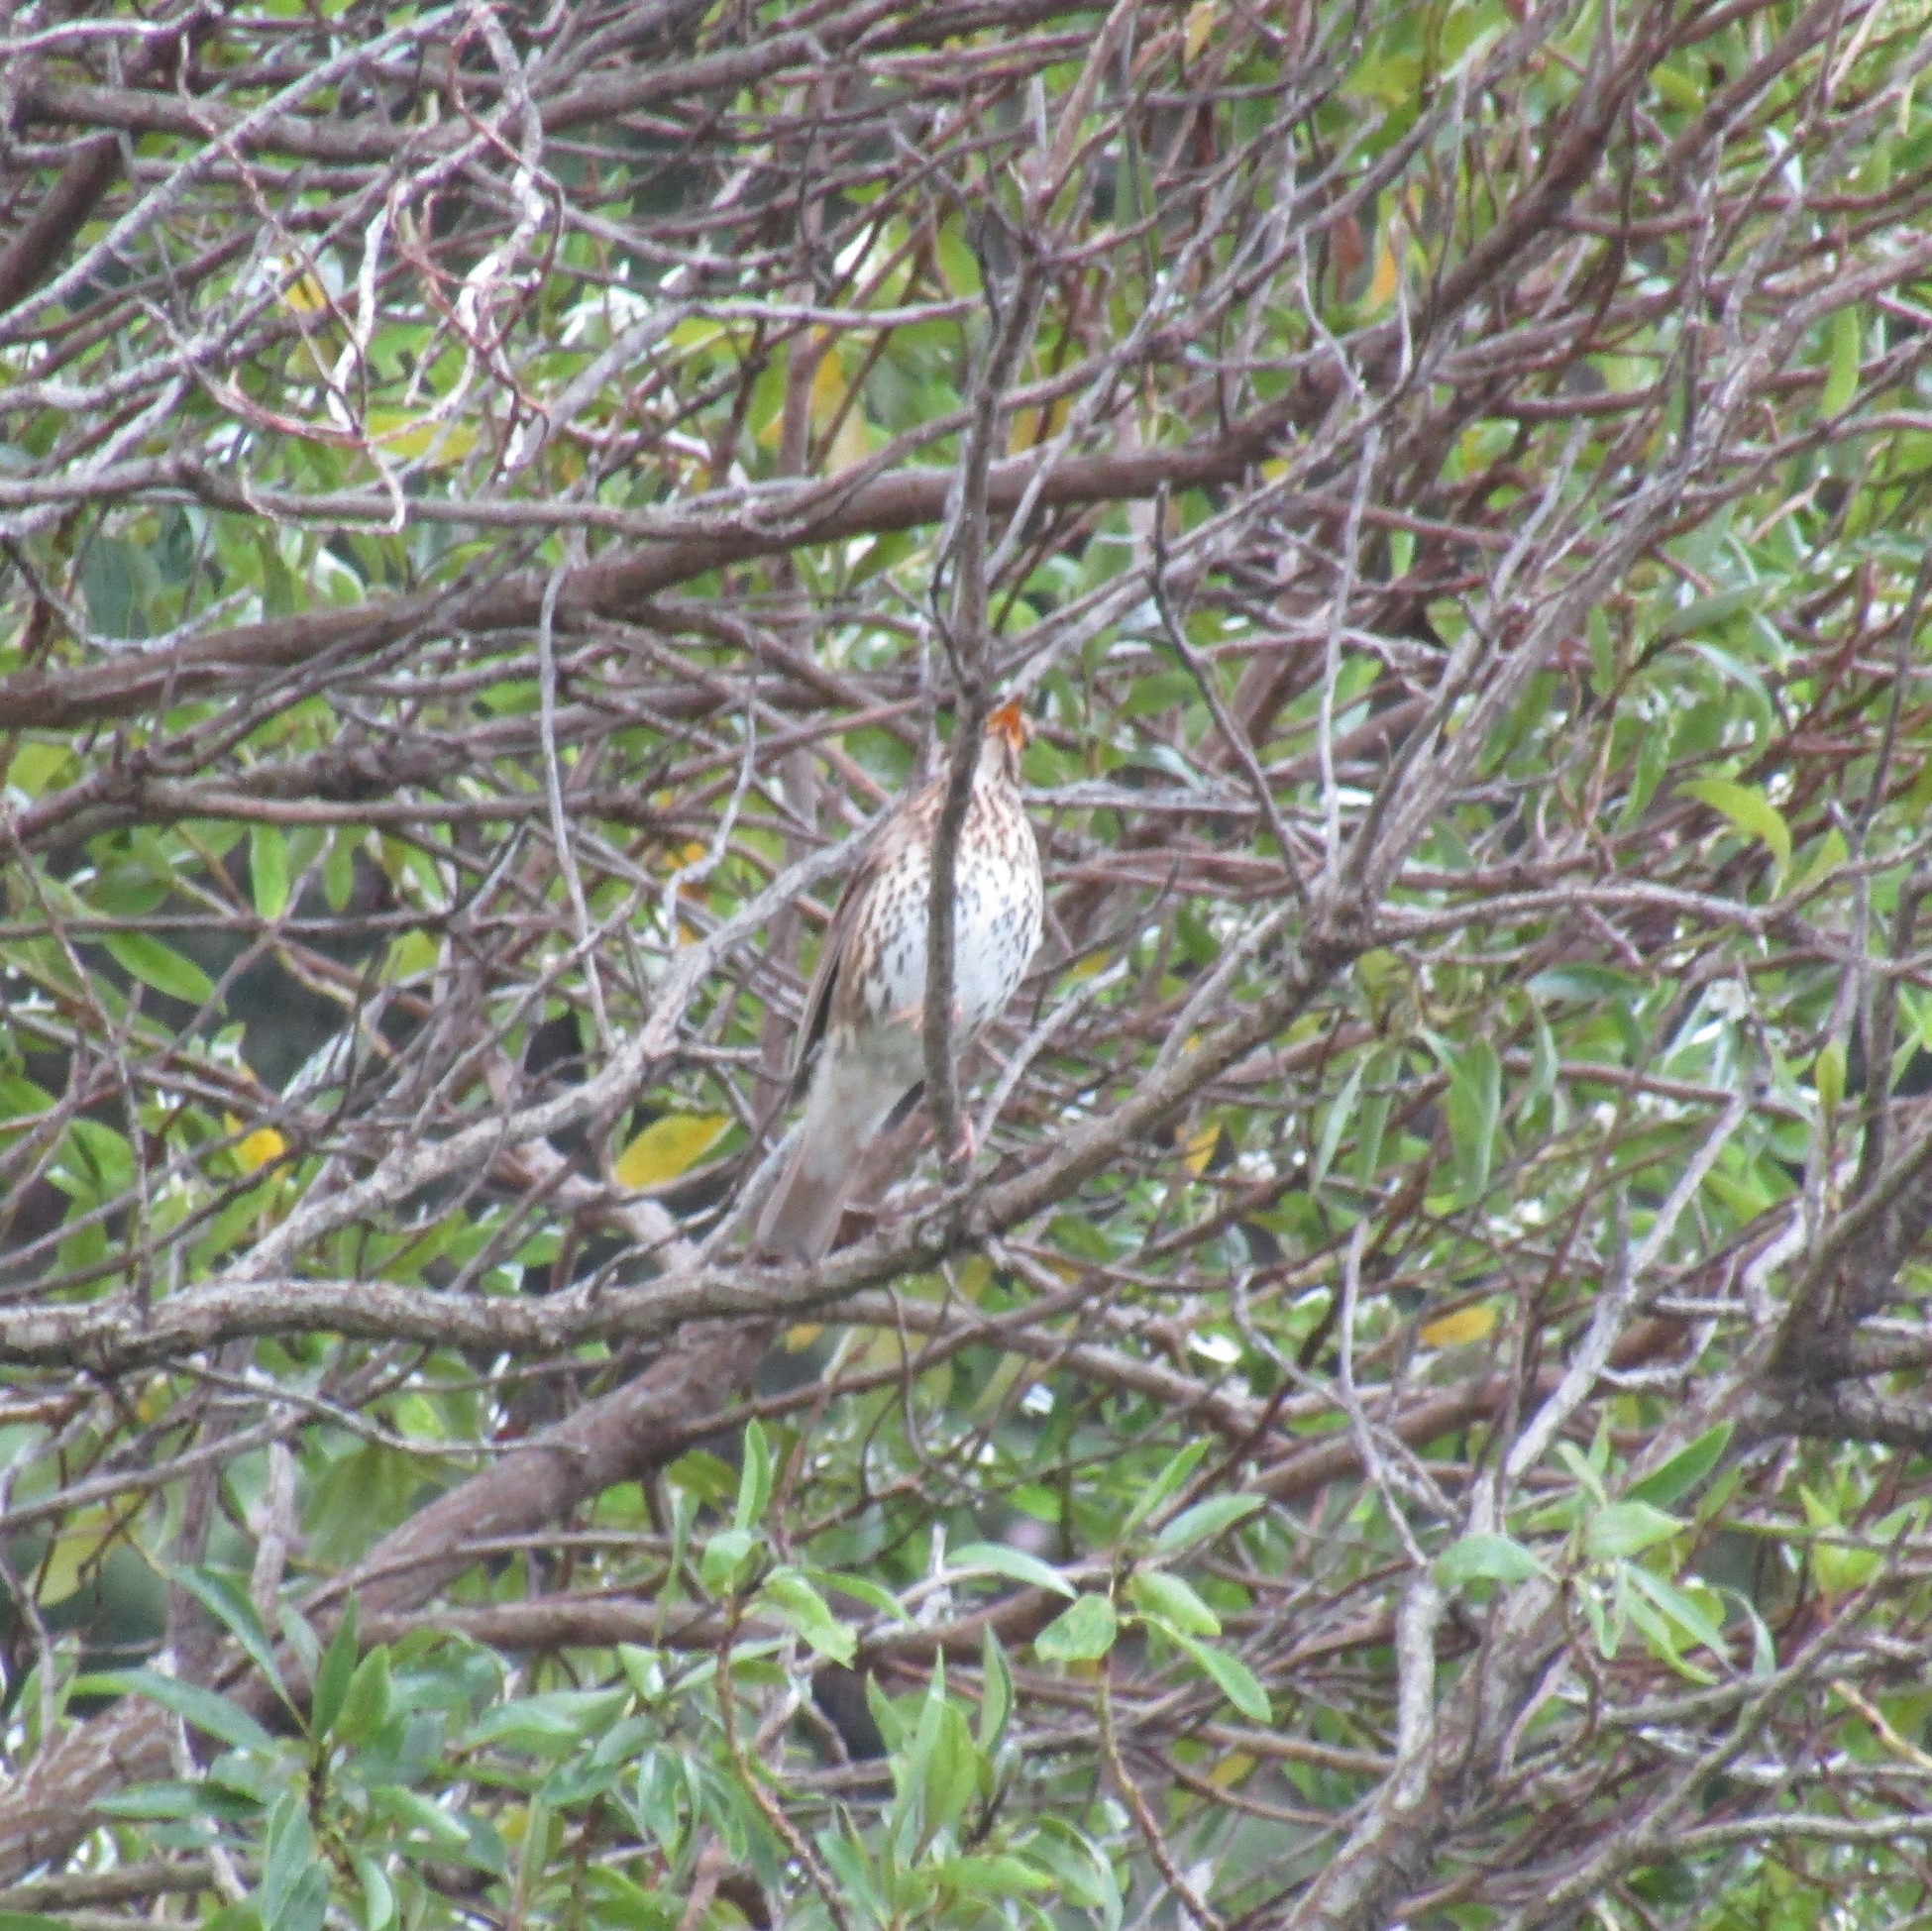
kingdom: Animalia
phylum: Chordata
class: Aves
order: Passeriformes
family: Turdidae
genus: Turdus
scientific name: Turdus philomelos
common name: Song thrush
